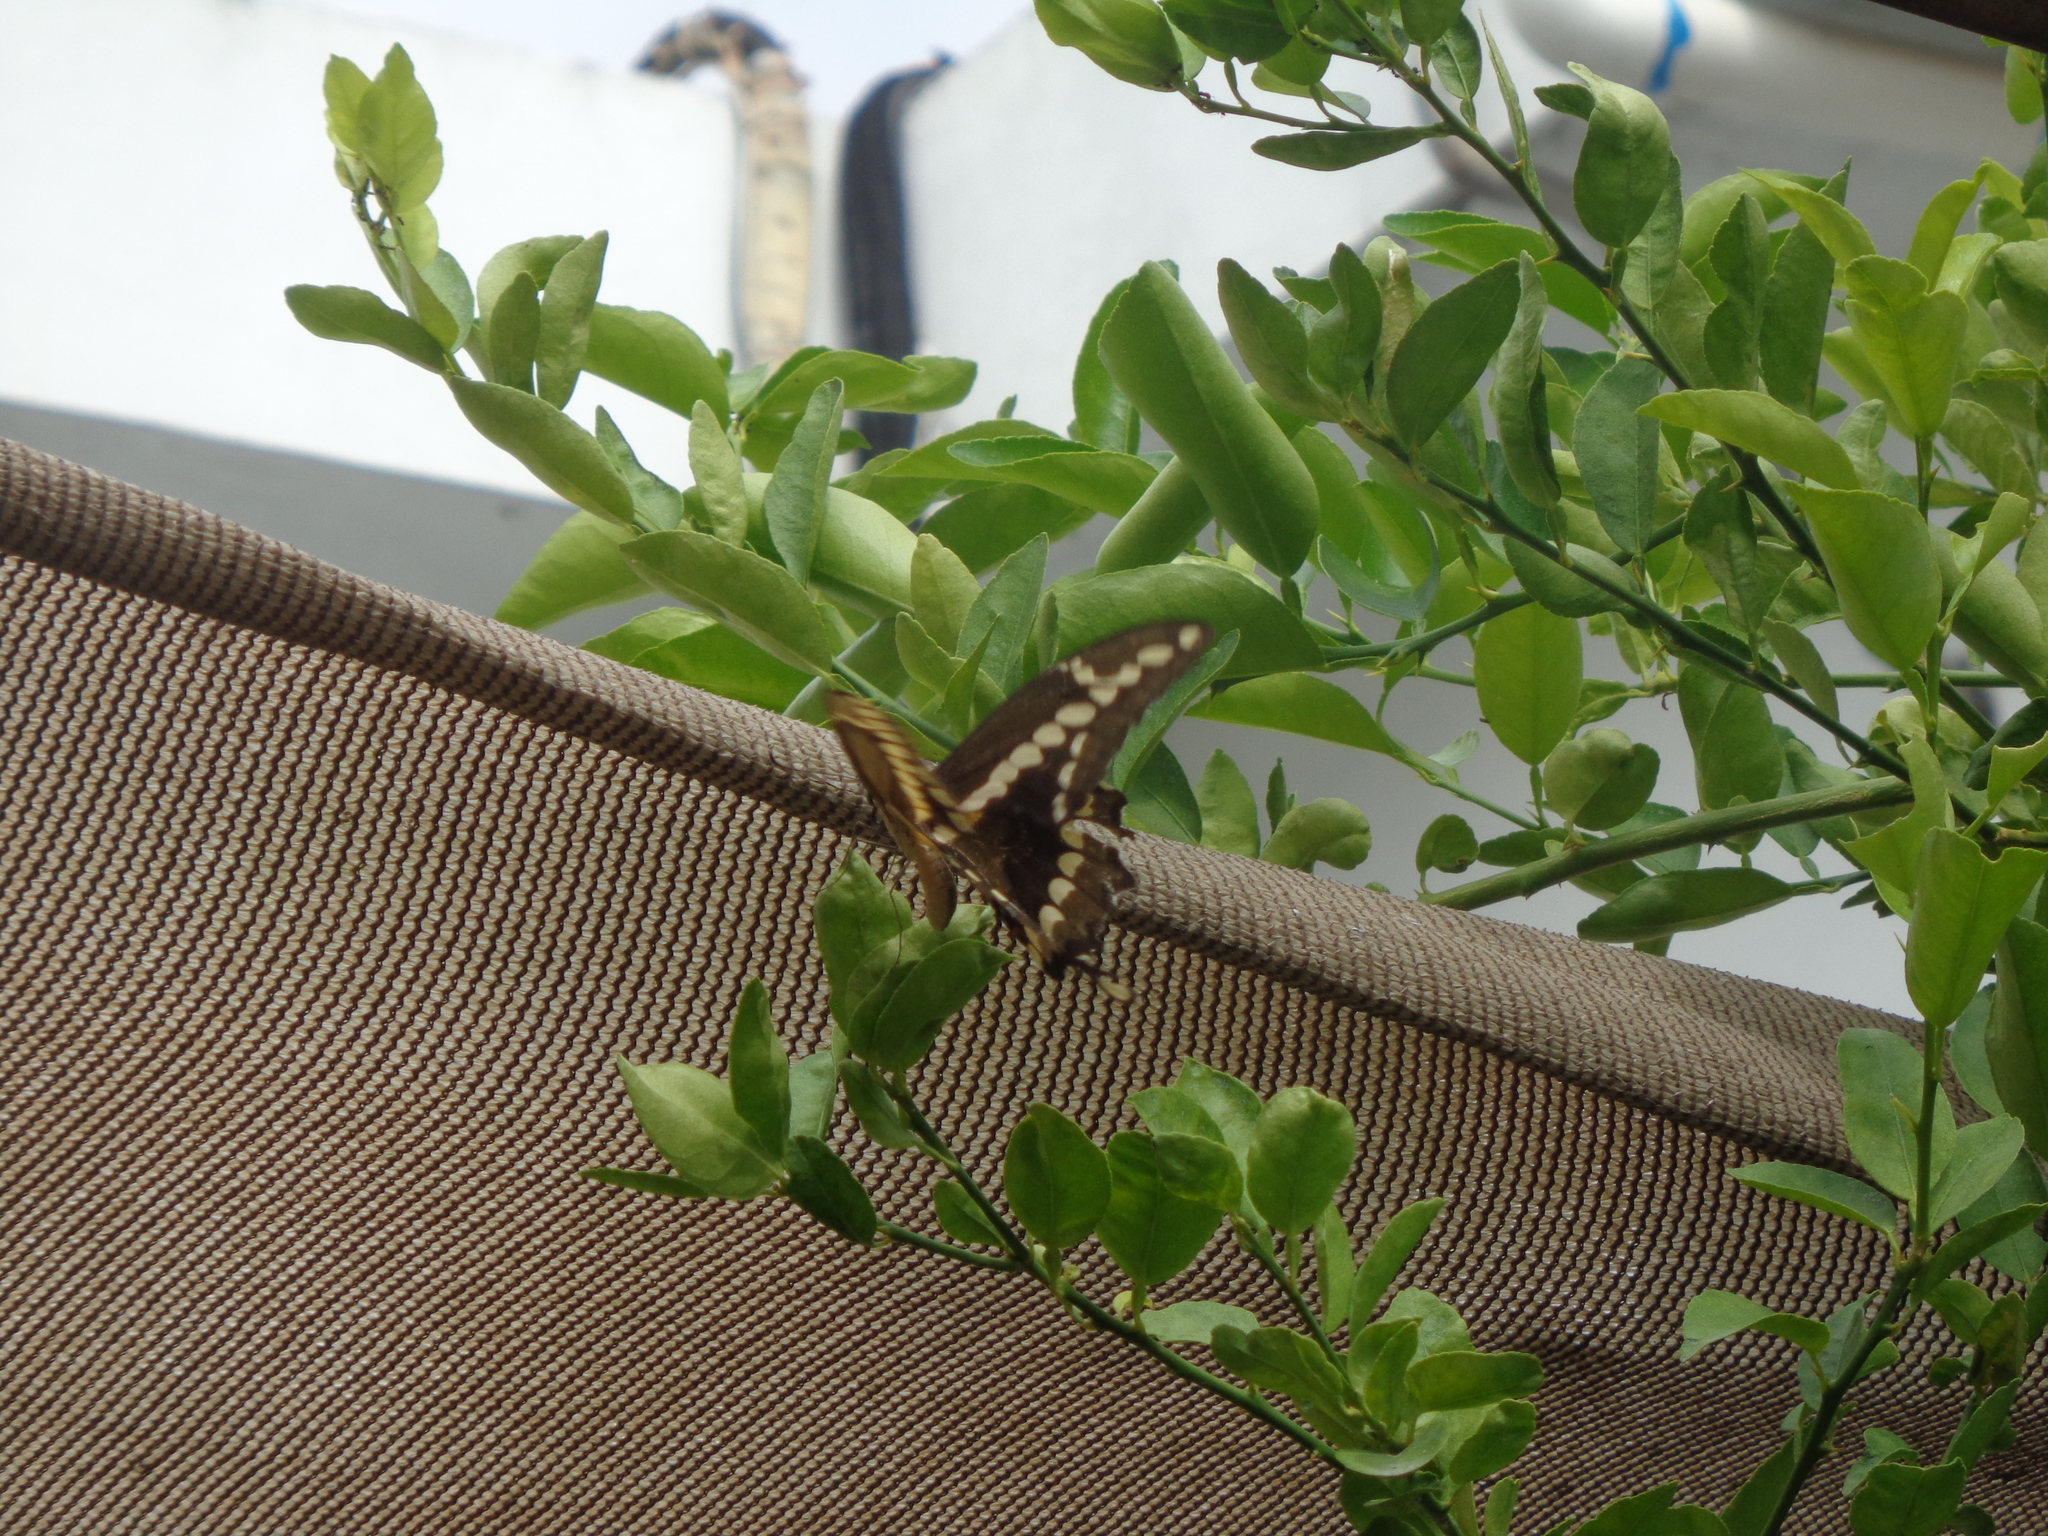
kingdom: Animalia
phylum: Arthropoda
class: Insecta
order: Lepidoptera
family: Papilionidae
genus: Papilio
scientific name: Papilio rumiko
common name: Western giant swallowtail
